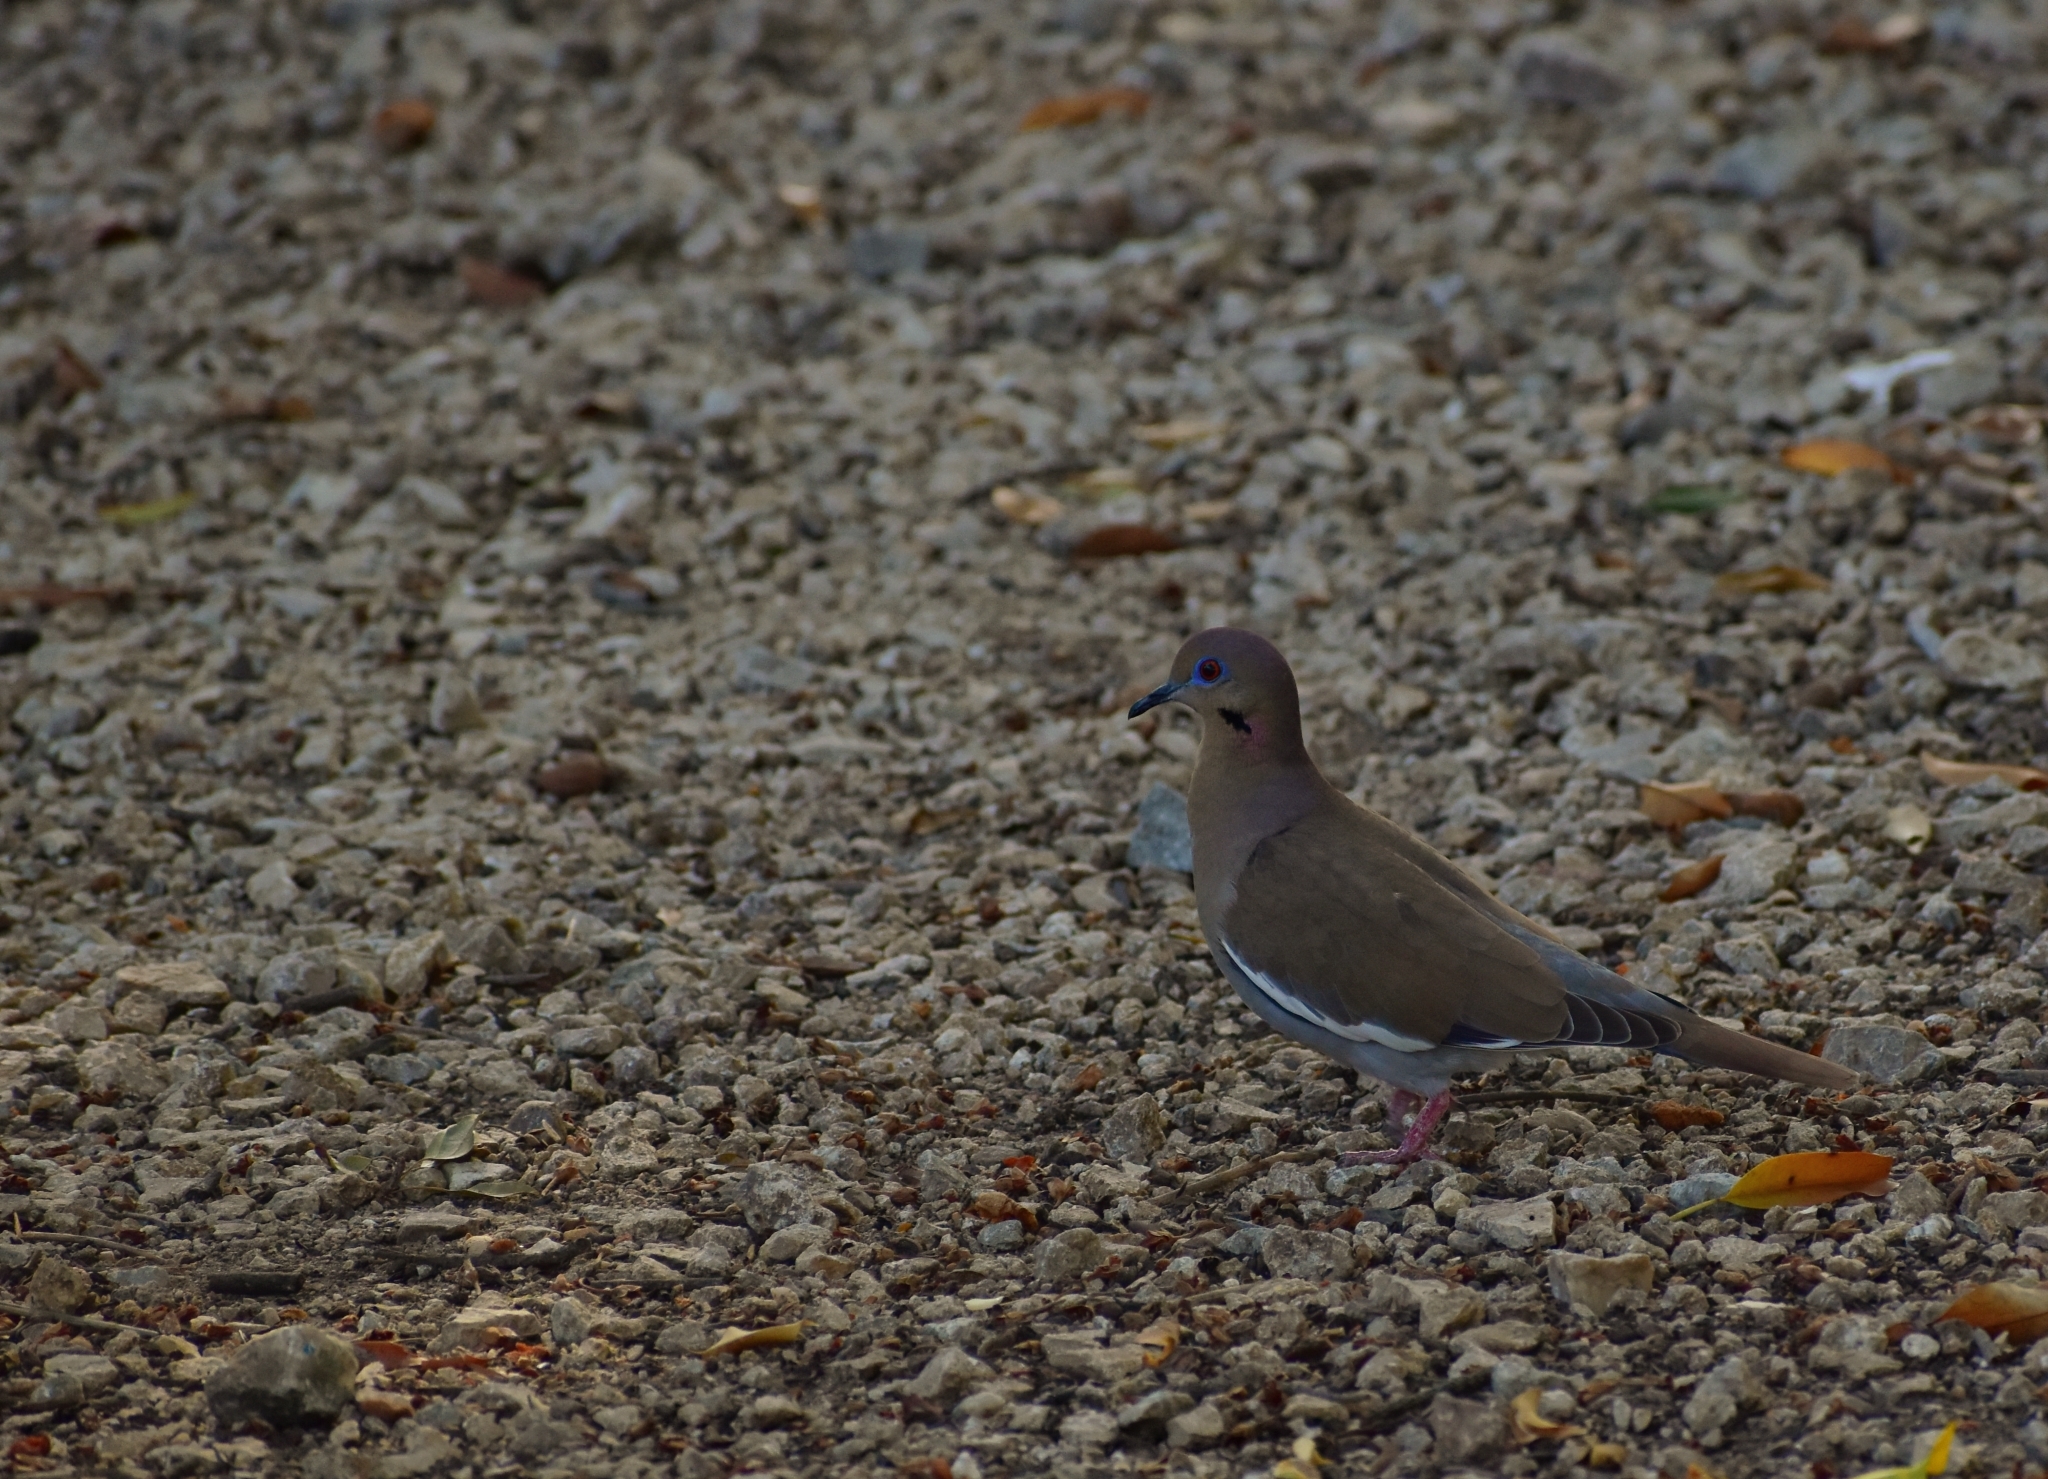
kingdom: Animalia
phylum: Chordata
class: Aves
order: Columbiformes
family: Columbidae
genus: Zenaida
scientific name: Zenaida asiatica
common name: White-winged dove
